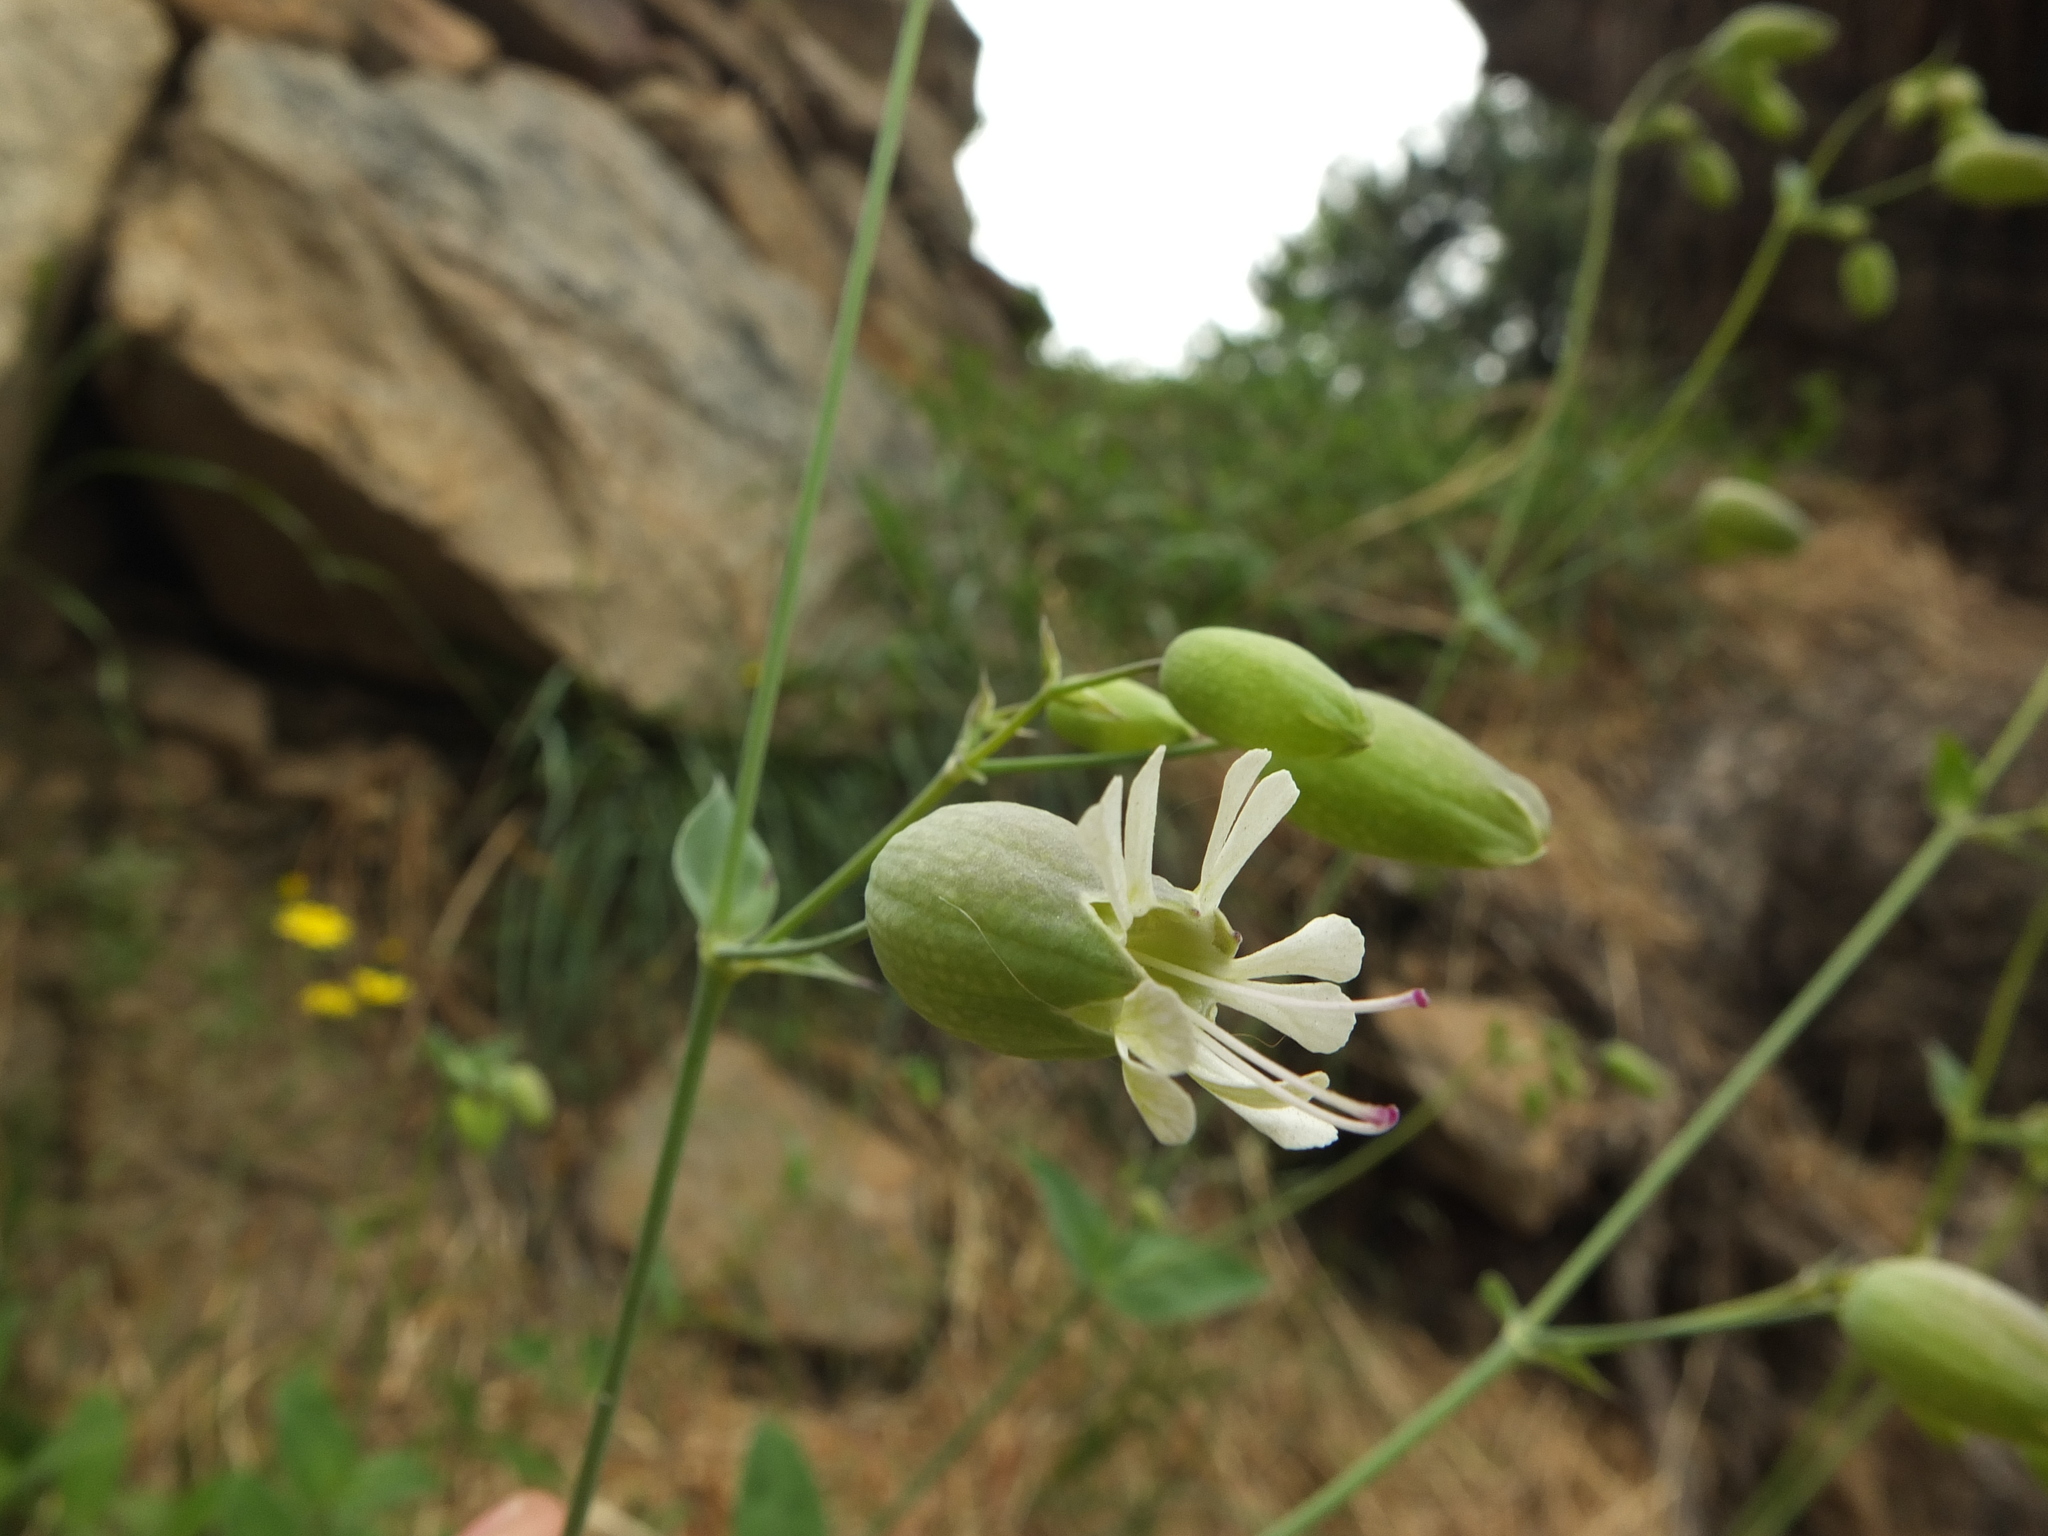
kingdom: Plantae
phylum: Tracheophyta
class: Magnoliopsida
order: Caryophyllales
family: Caryophyllaceae
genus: Silene
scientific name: Silene vulgaris
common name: Bladder campion
